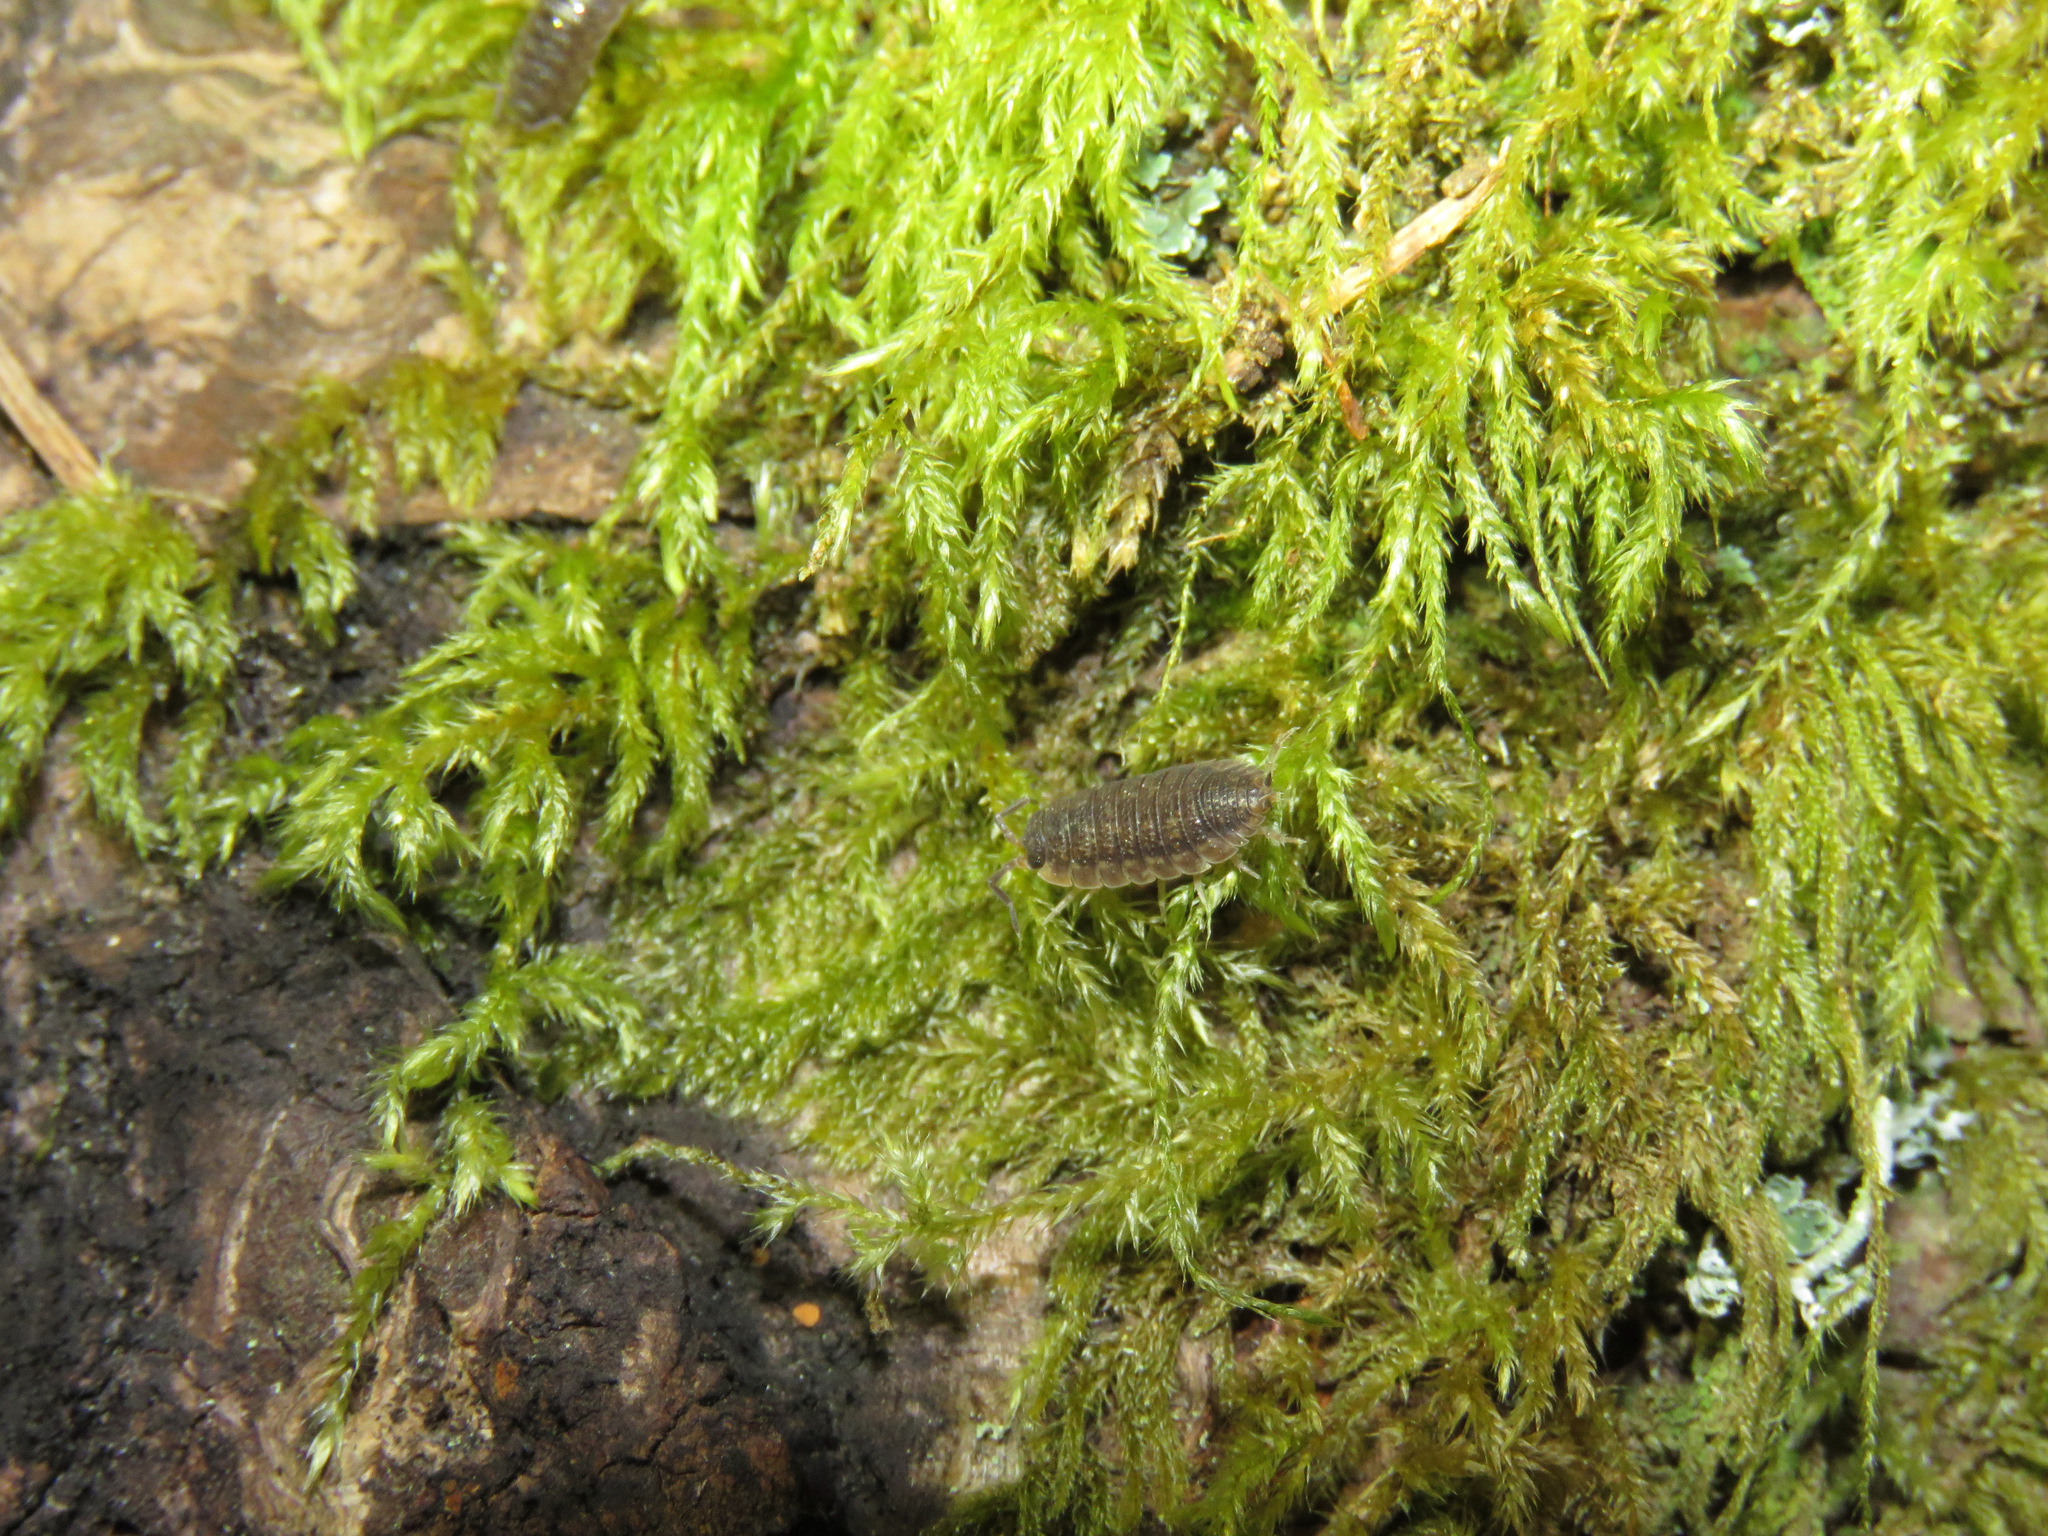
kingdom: Animalia
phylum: Arthropoda
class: Malacostraca
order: Isopoda
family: Porcellionidae
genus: Porcellio
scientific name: Porcellio scaber
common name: Common rough woodlouse
